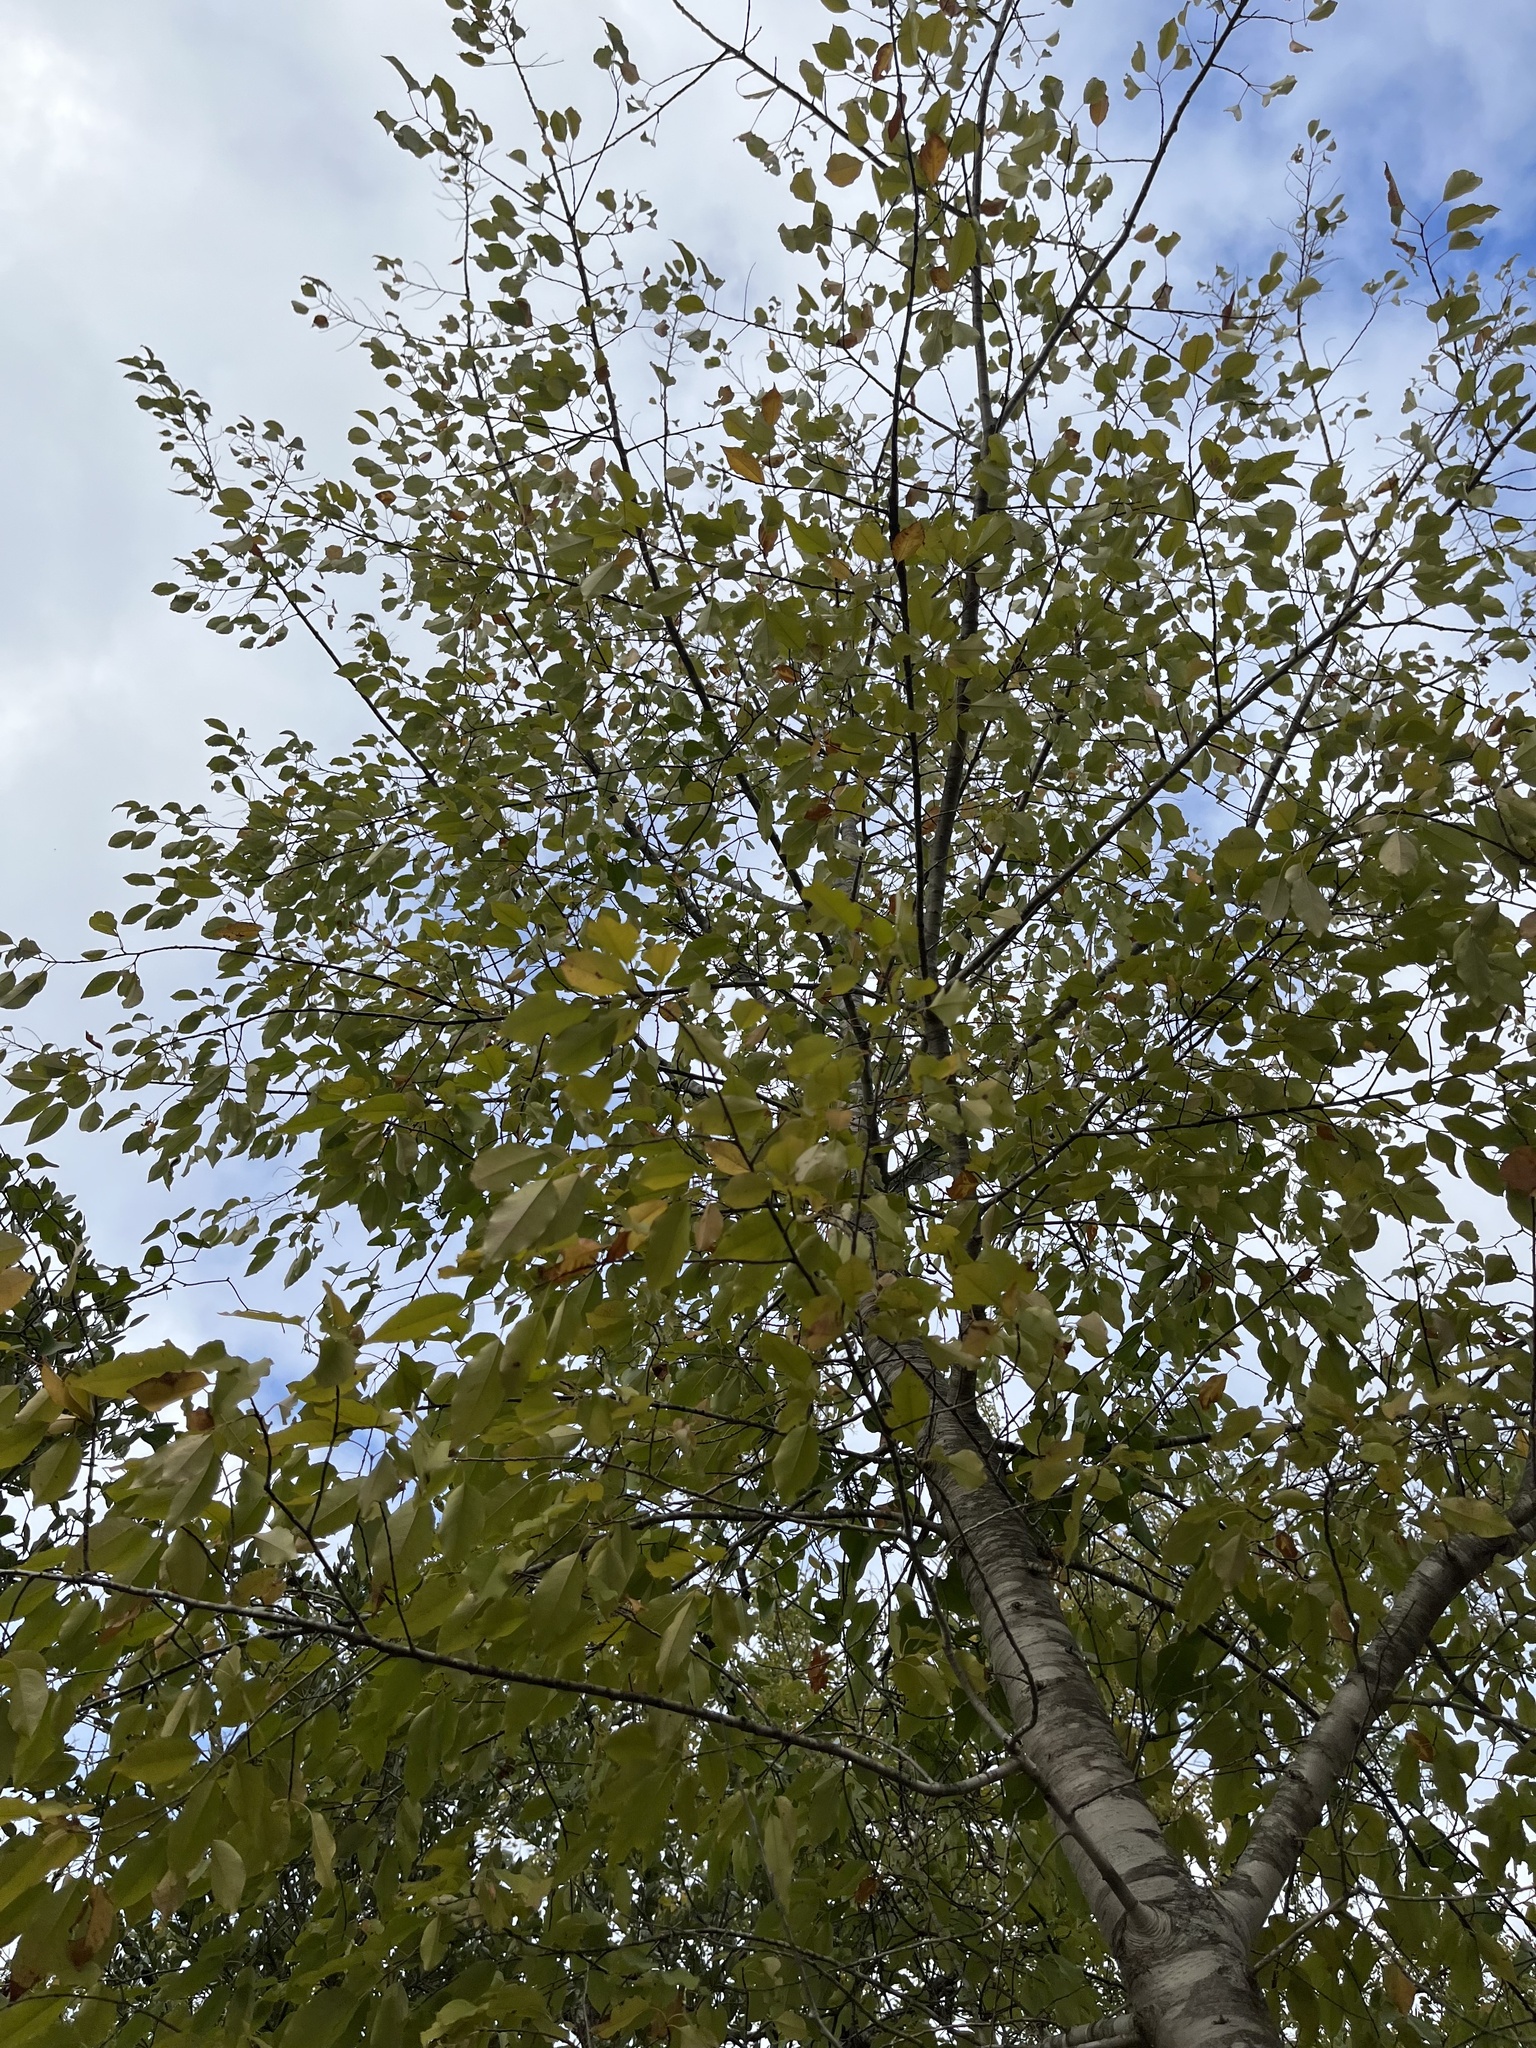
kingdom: Plantae
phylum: Tracheophyta
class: Magnoliopsida
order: Rosales
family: Rosaceae
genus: Prunus
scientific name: Prunus serotina
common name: Black cherry
